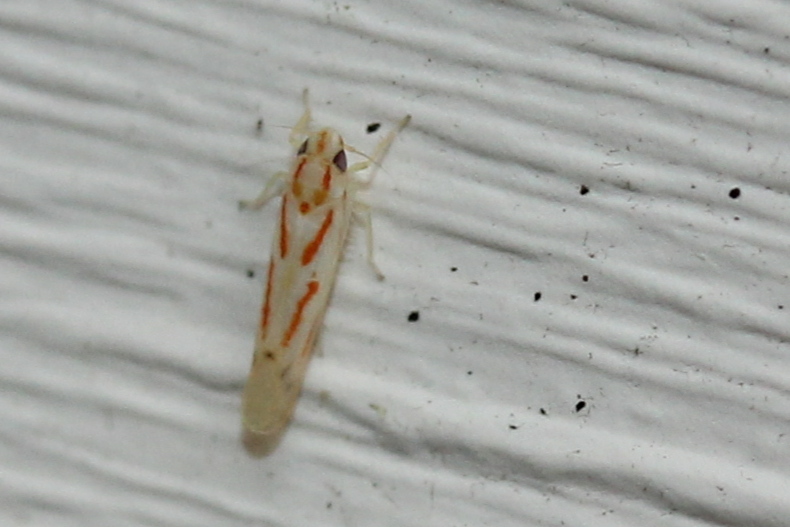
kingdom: Animalia
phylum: Arthropoda
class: Insecta
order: Hemiptera
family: Cicadellidae
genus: Dikrella
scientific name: Dikrella cruentata
